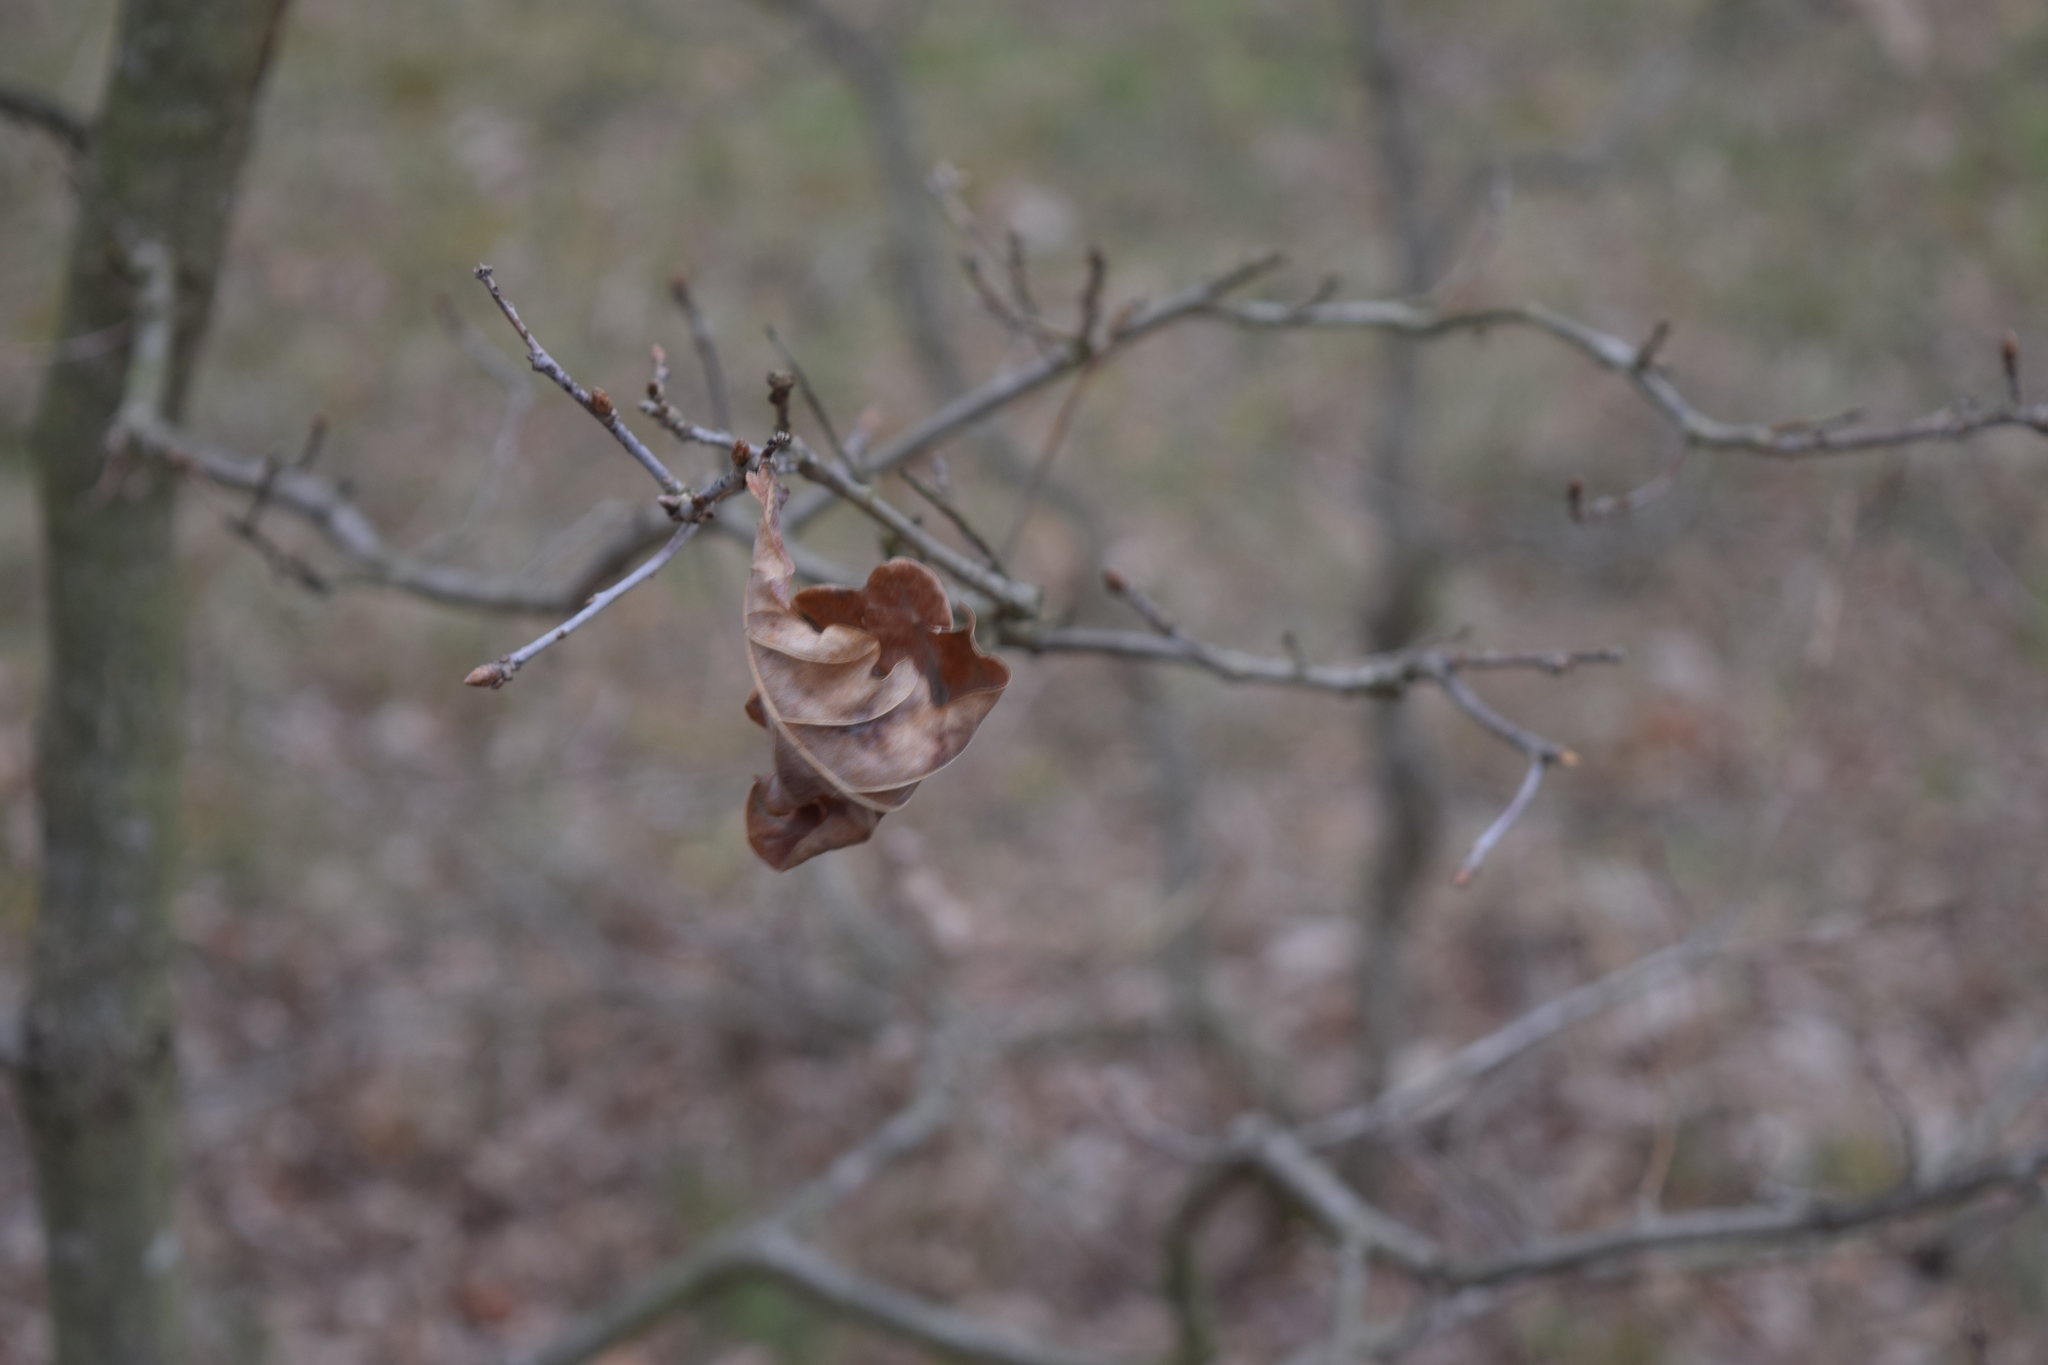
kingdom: Plantae
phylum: Tracheophyta
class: Magnoliopsida
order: Fagales
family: Fagaceae
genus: Quercus
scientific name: Quercus robur
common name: Pedunculate oak
